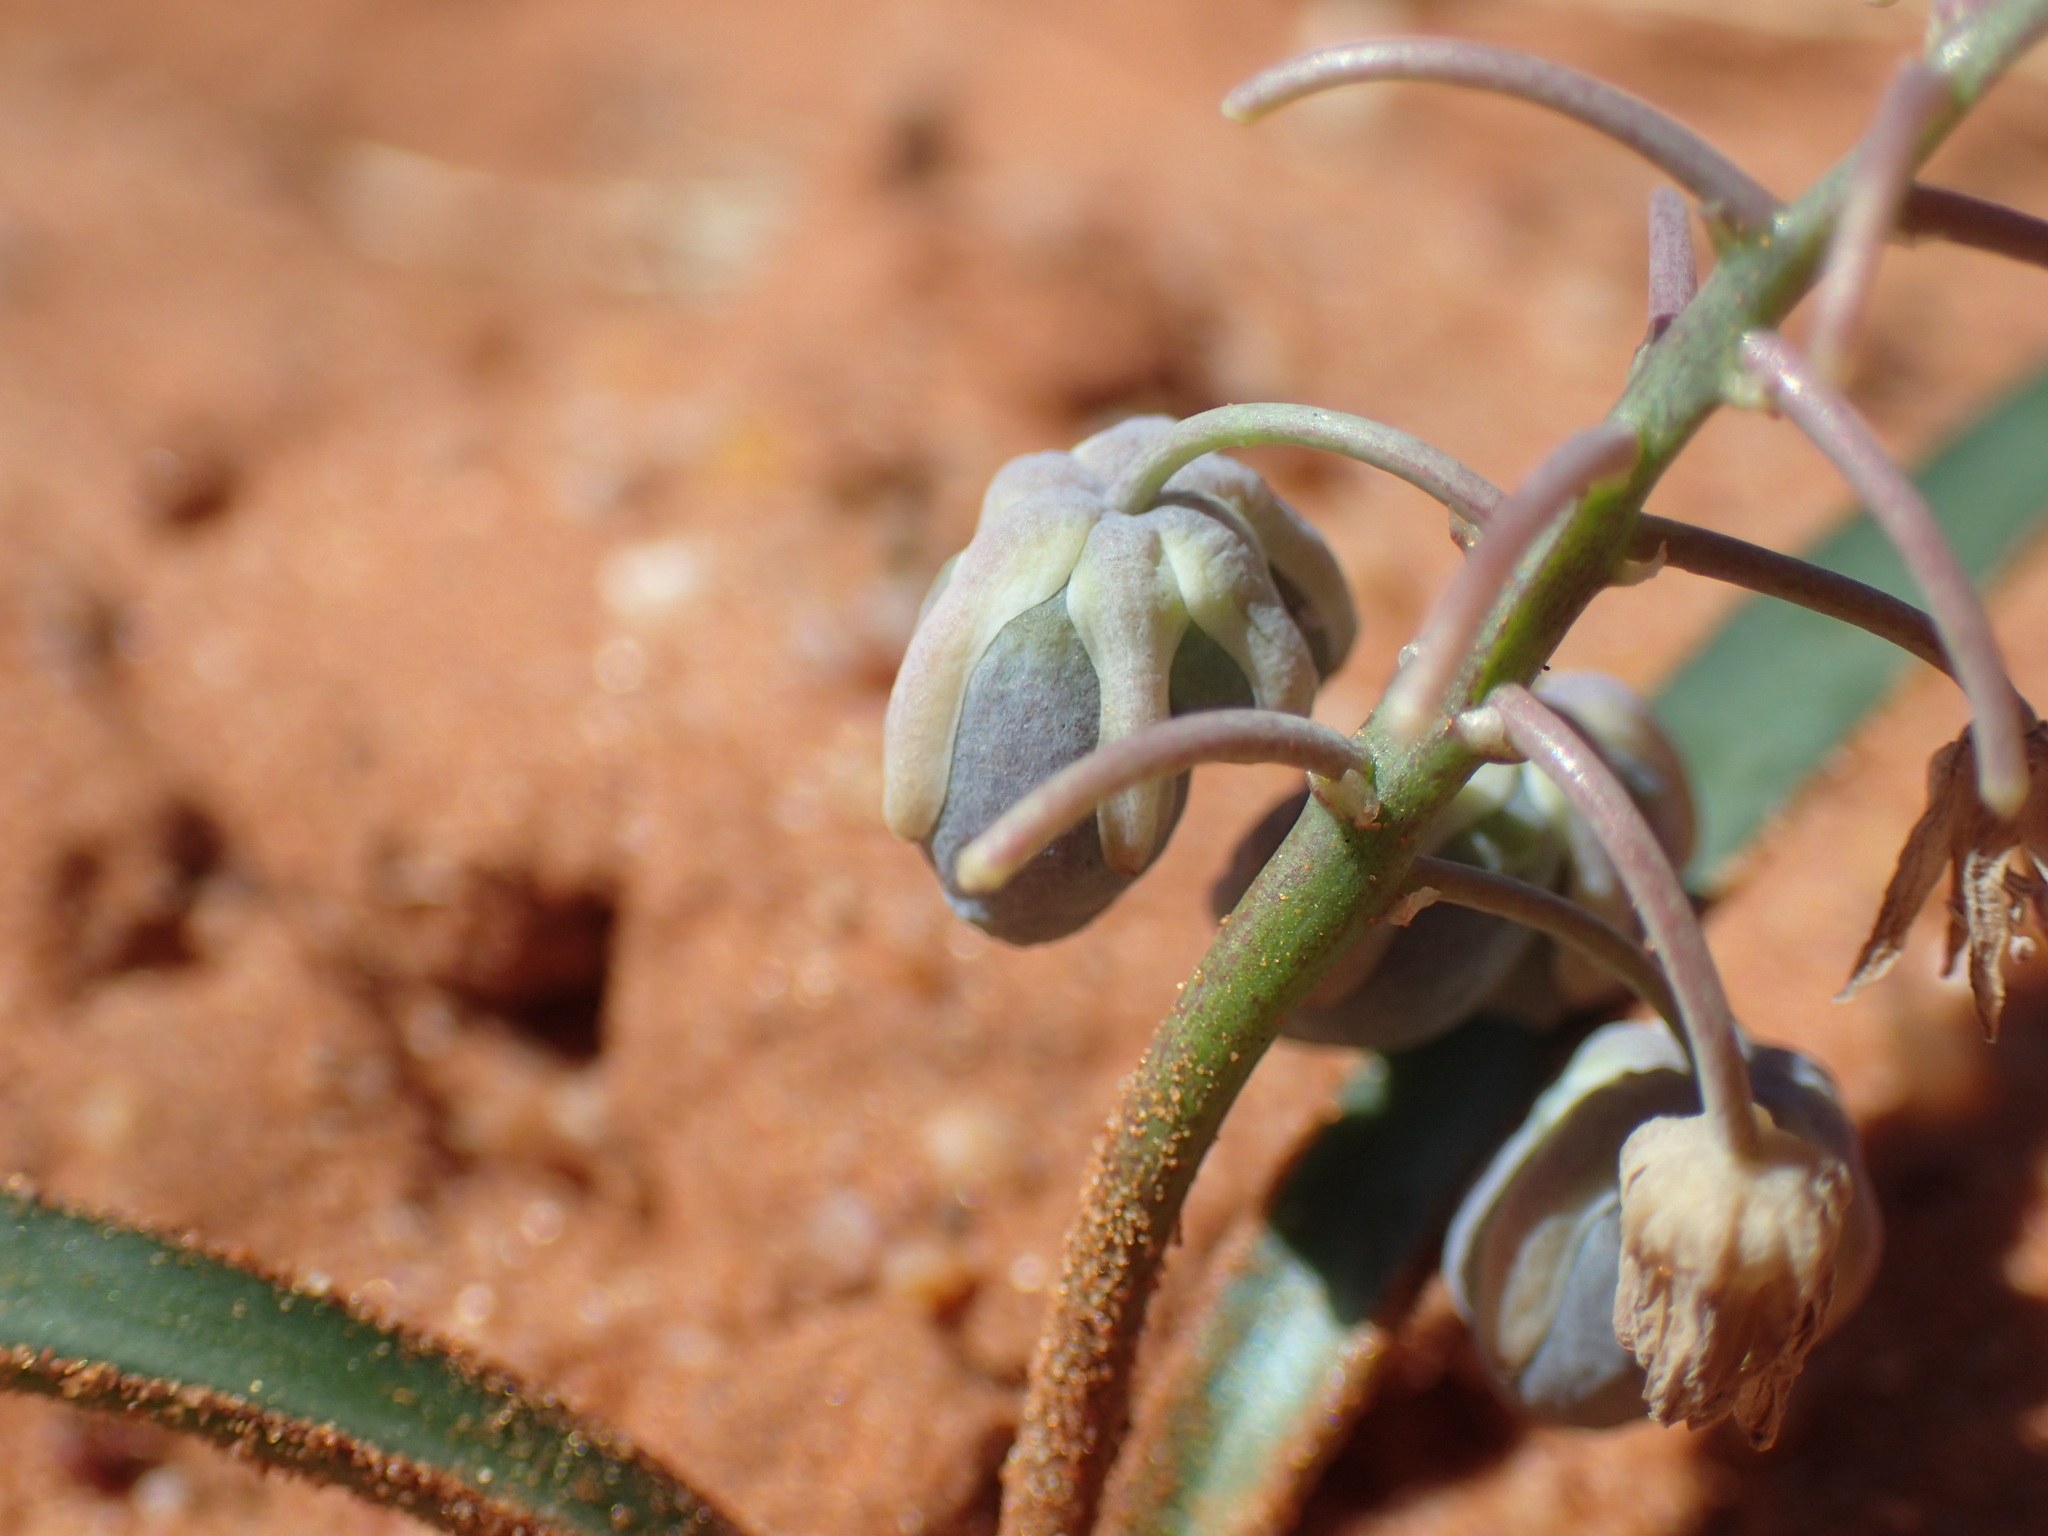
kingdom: Plantae
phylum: Tracheophyta
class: Liliopsida
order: Asparagales
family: Asparagaceae
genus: Ledebouria
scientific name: Ledebouria apertiflora
